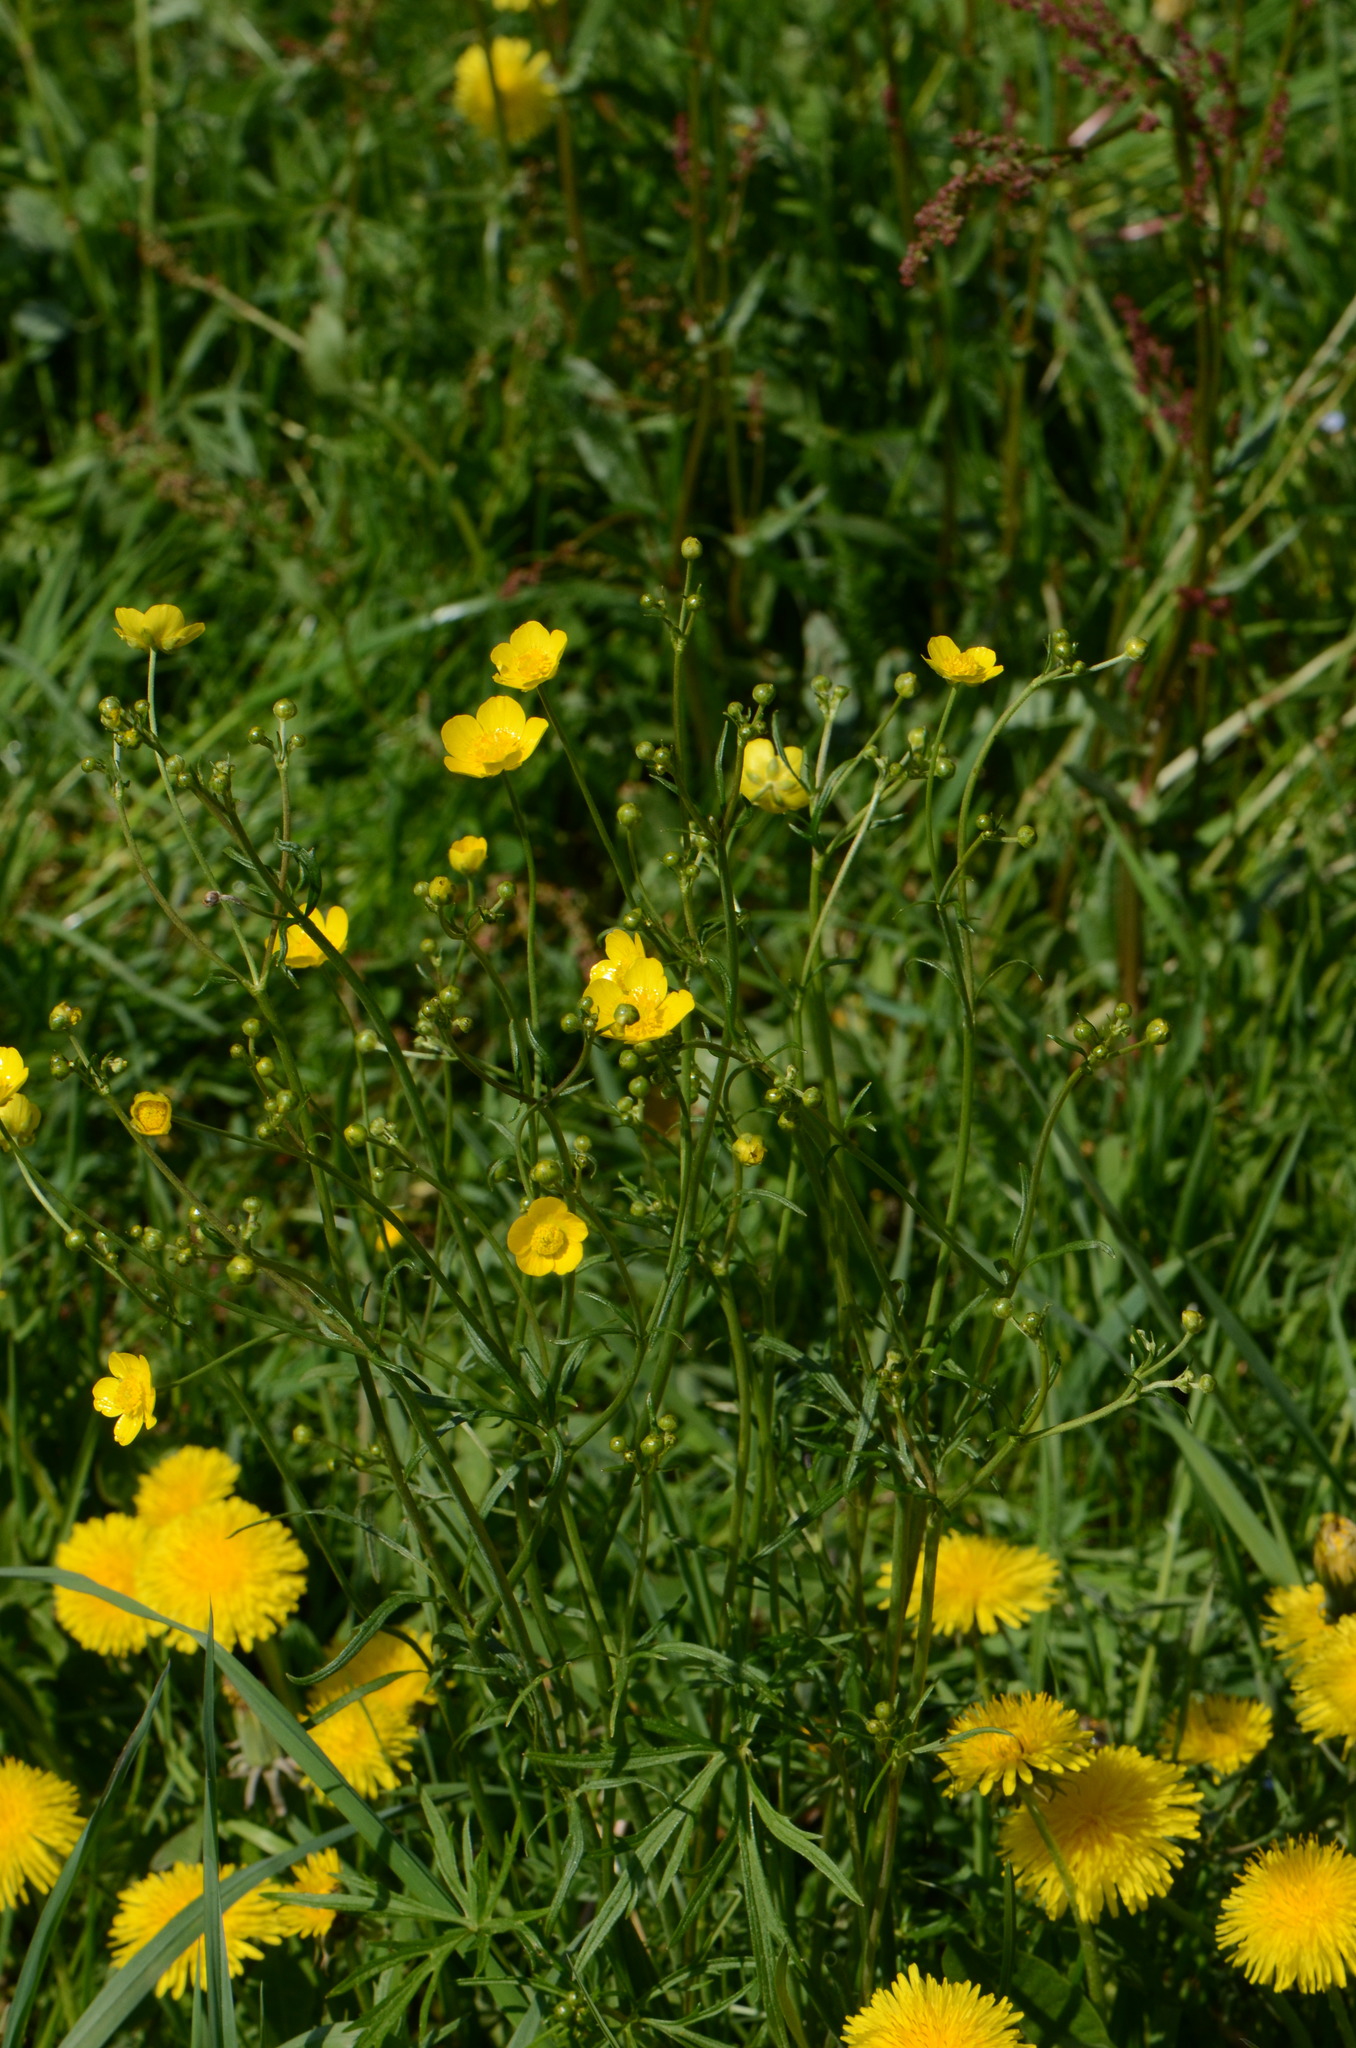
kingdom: Plantae
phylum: Tracheophyta
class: Magnoliopsida
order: Ranunculales
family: Ranunculaceae
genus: Ranunculus
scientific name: Ranunculus acris
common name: Meadow buttercup
